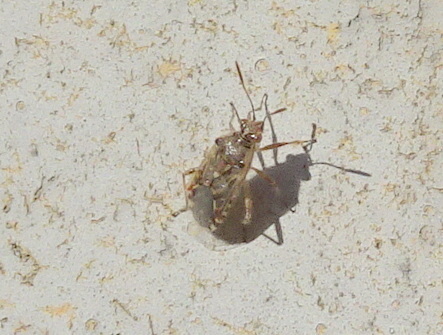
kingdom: Animalia
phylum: Arthropoda
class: Insecta
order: Hemiptera
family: Rhopalidae
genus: Liorhyssus
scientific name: Liorhyssus hyalinus
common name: Scentless plant bug
